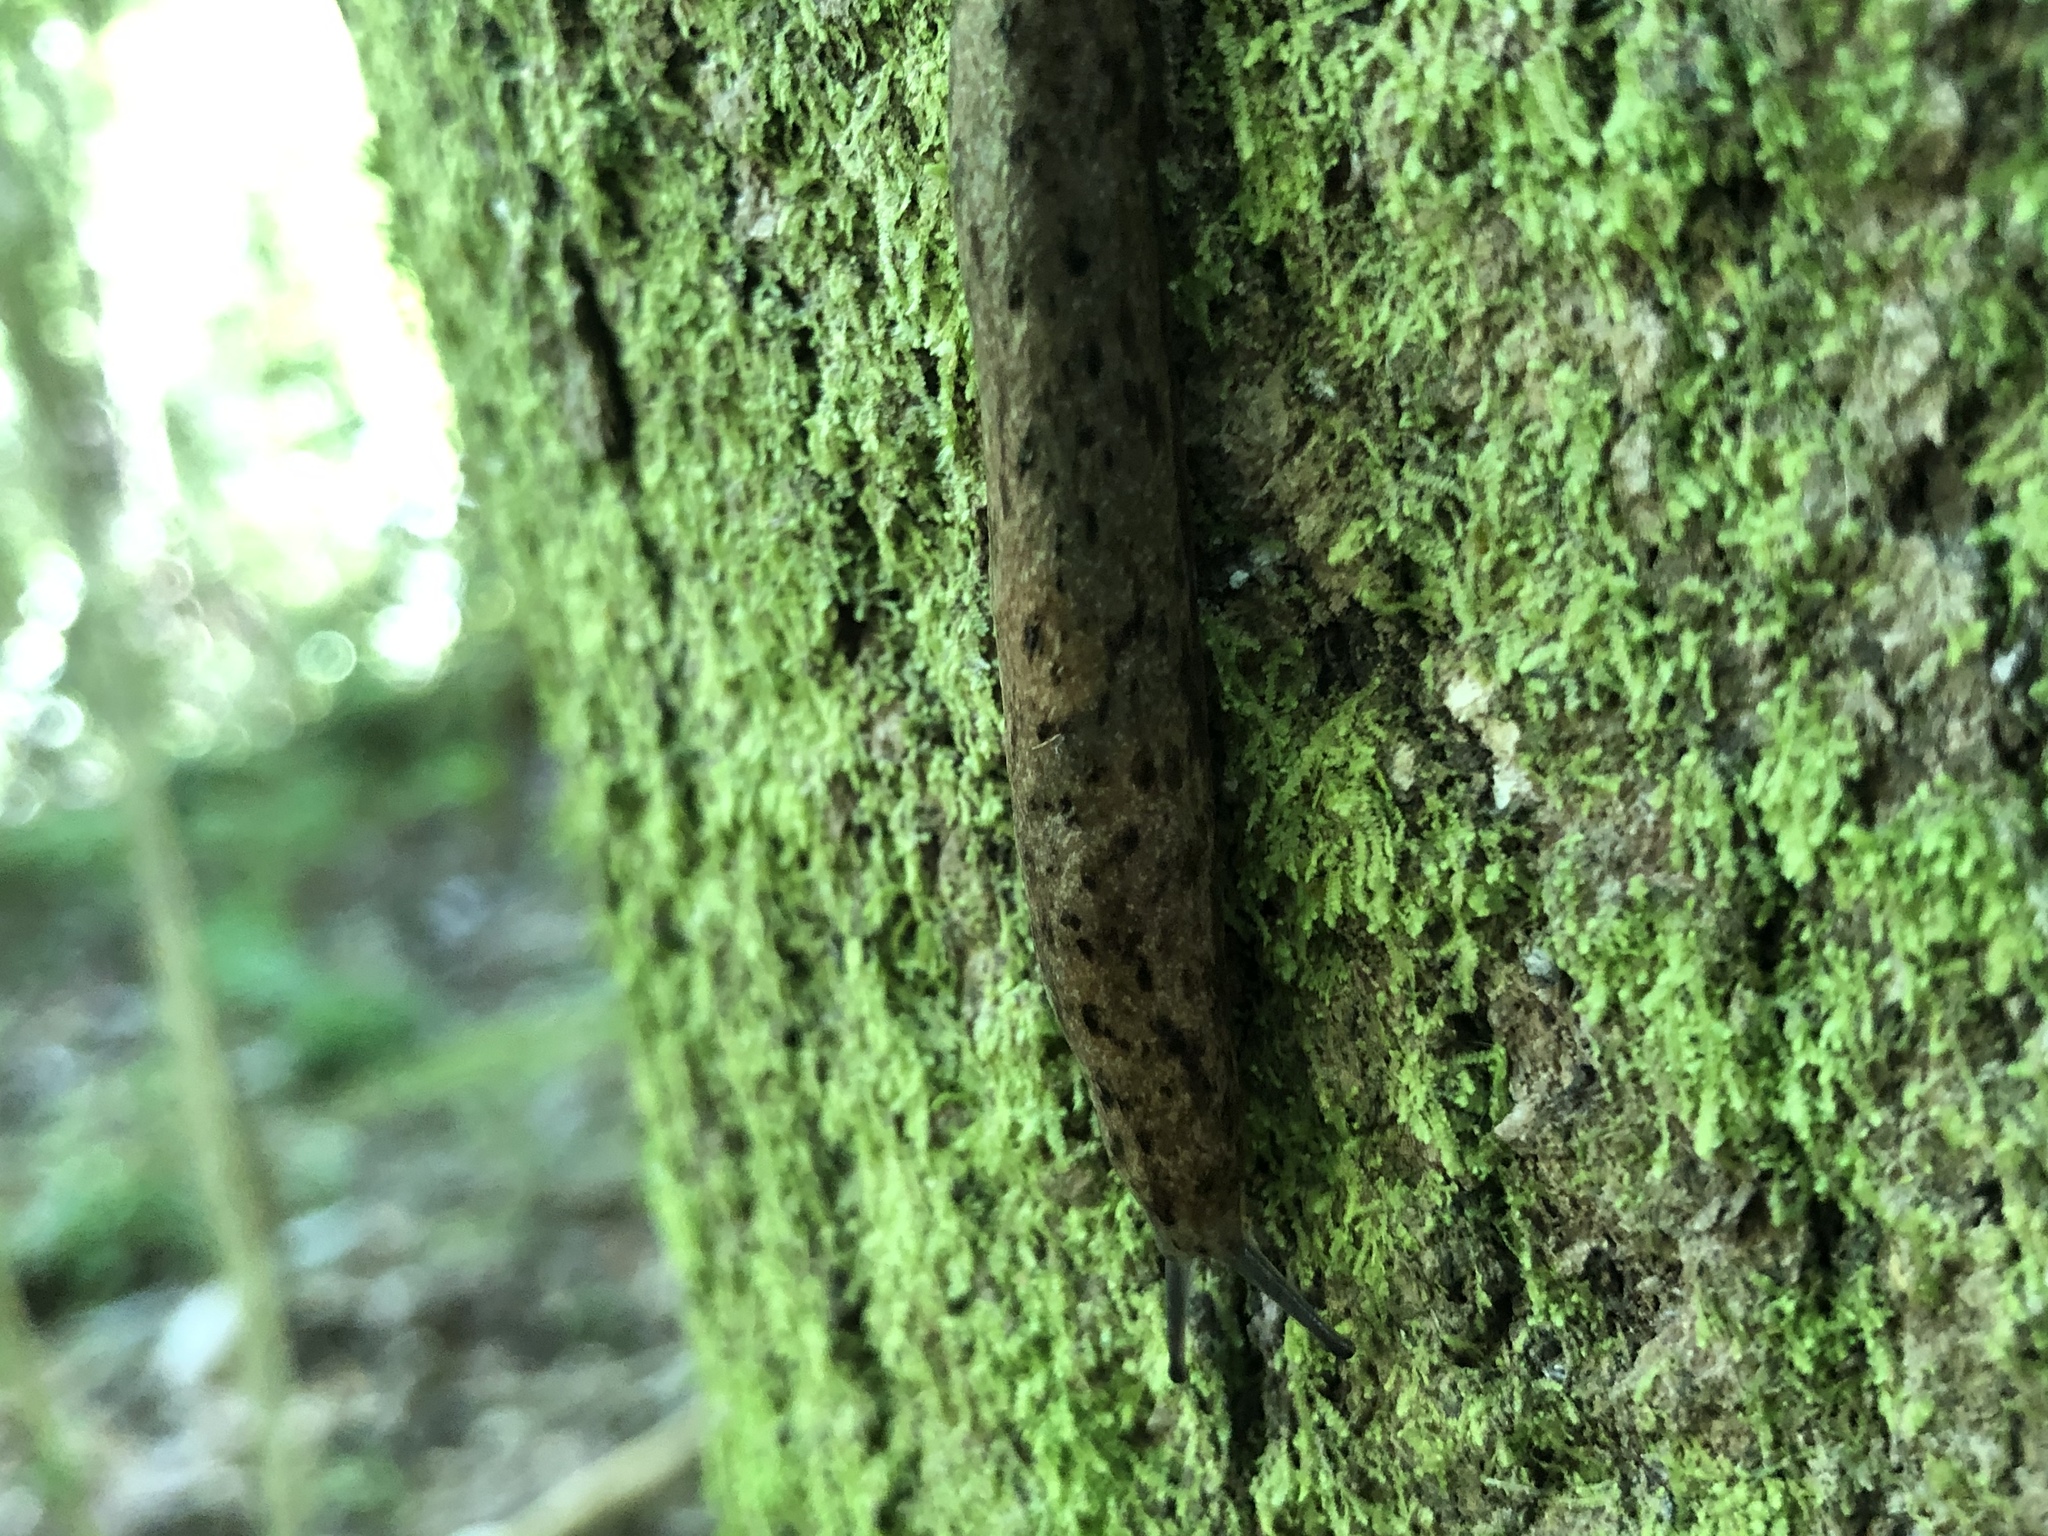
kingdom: Animalia
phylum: Mollusca
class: Gastropoda
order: Stylommatophora
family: Philomycidae
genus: Megapallifera
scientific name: Megapallifera mutabilis
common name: Changeable mantleslug
